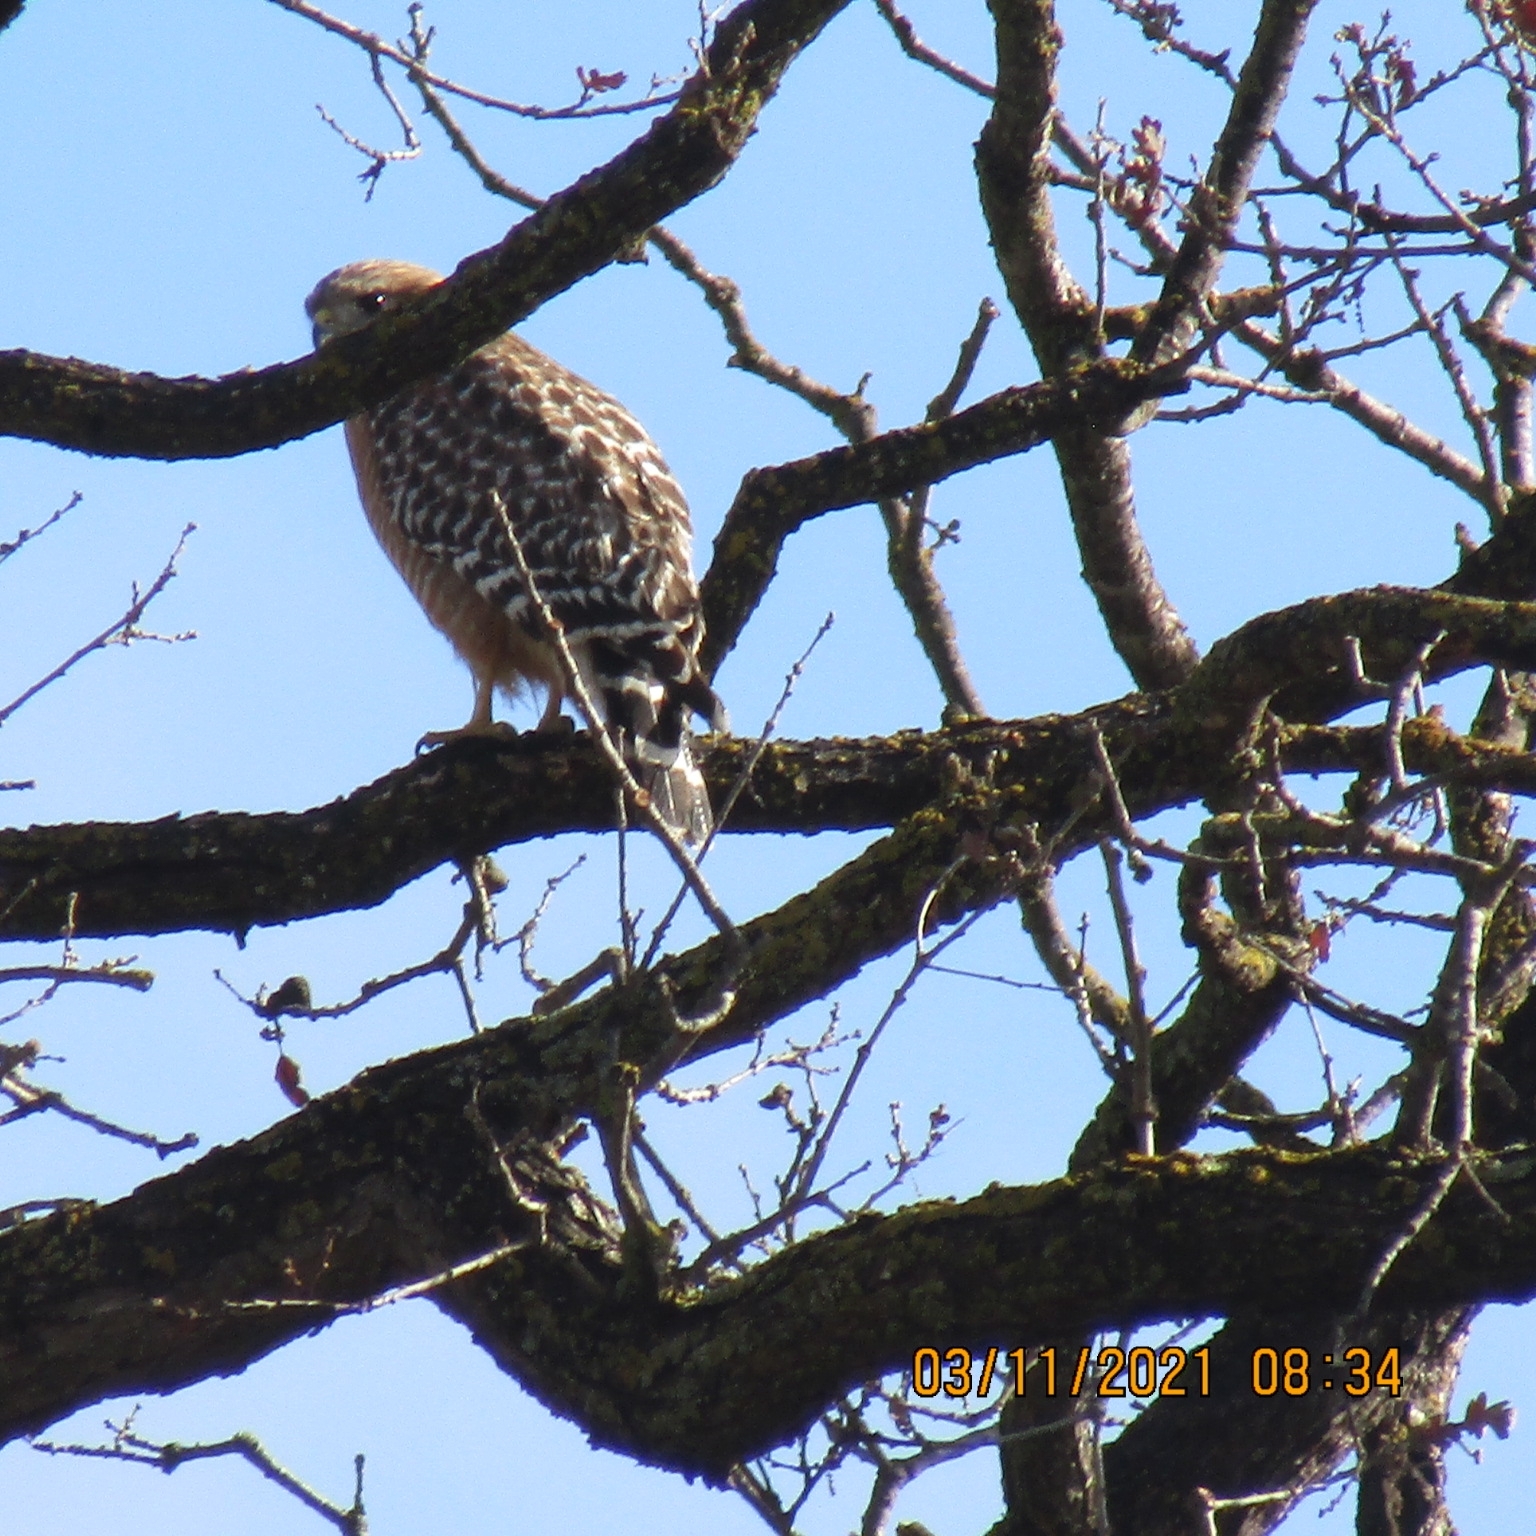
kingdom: Animalia
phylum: Chordata
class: Aves
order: Accipitriformes
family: Accipitridae
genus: Buteo
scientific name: Buteo lineatus
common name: Red-shouldered hawk
